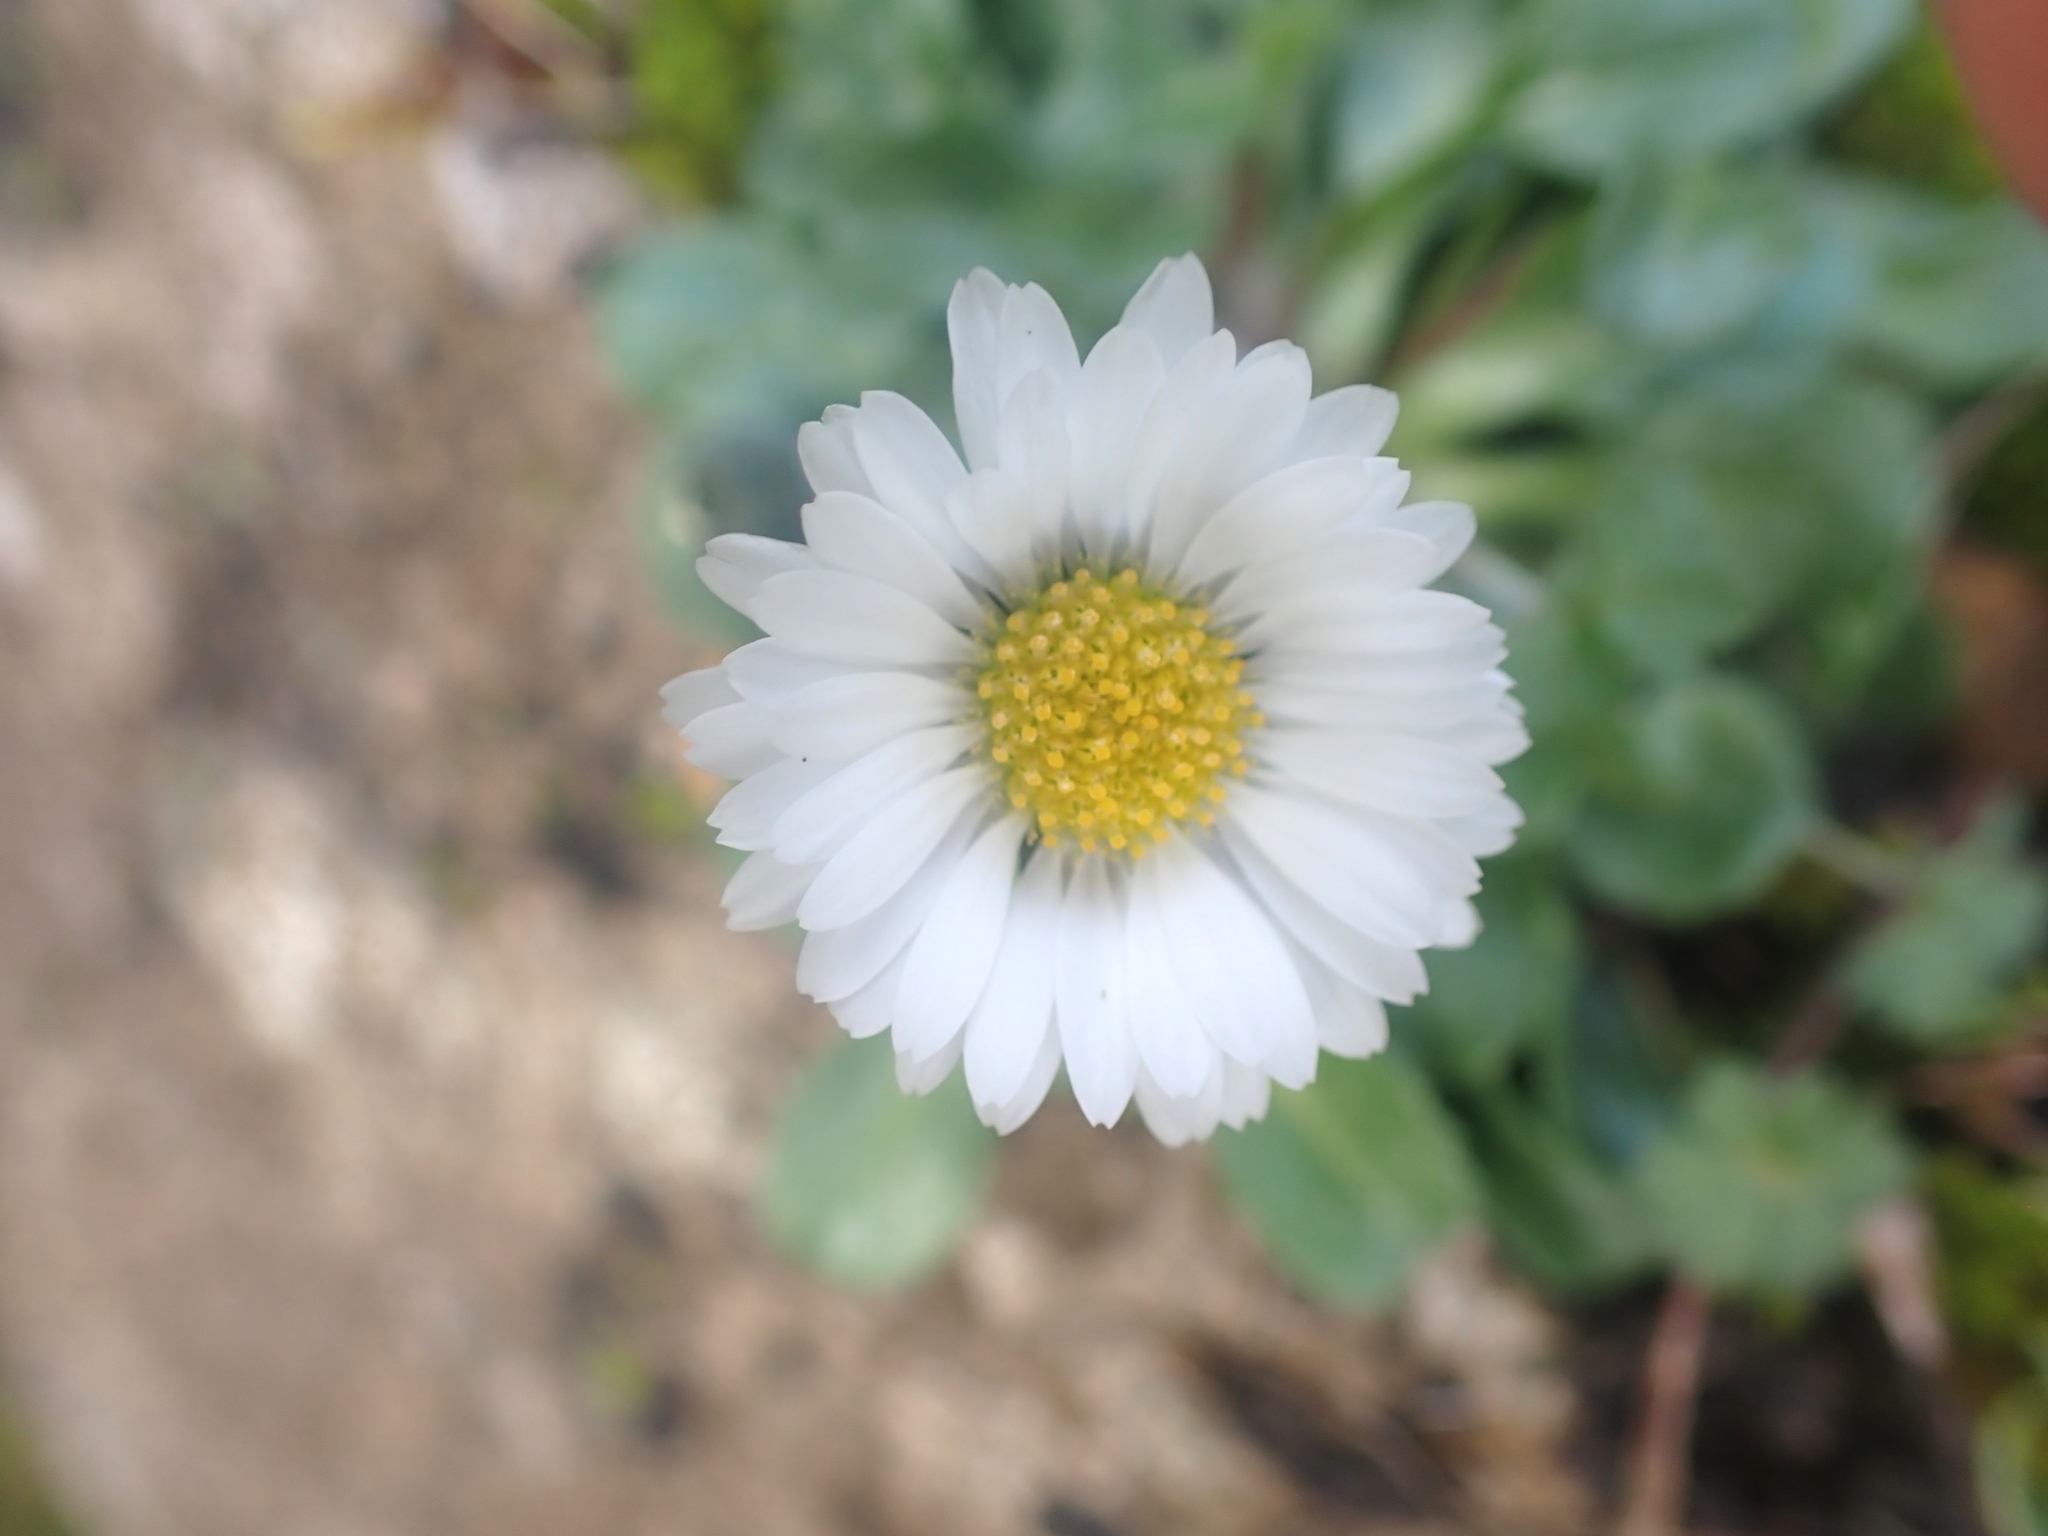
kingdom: Plantae
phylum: Tracheophyta
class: Magnoliopsida
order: Asterales
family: Asteraceae
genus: Bellis
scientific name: Bellis perennis
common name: Lawndaisy
